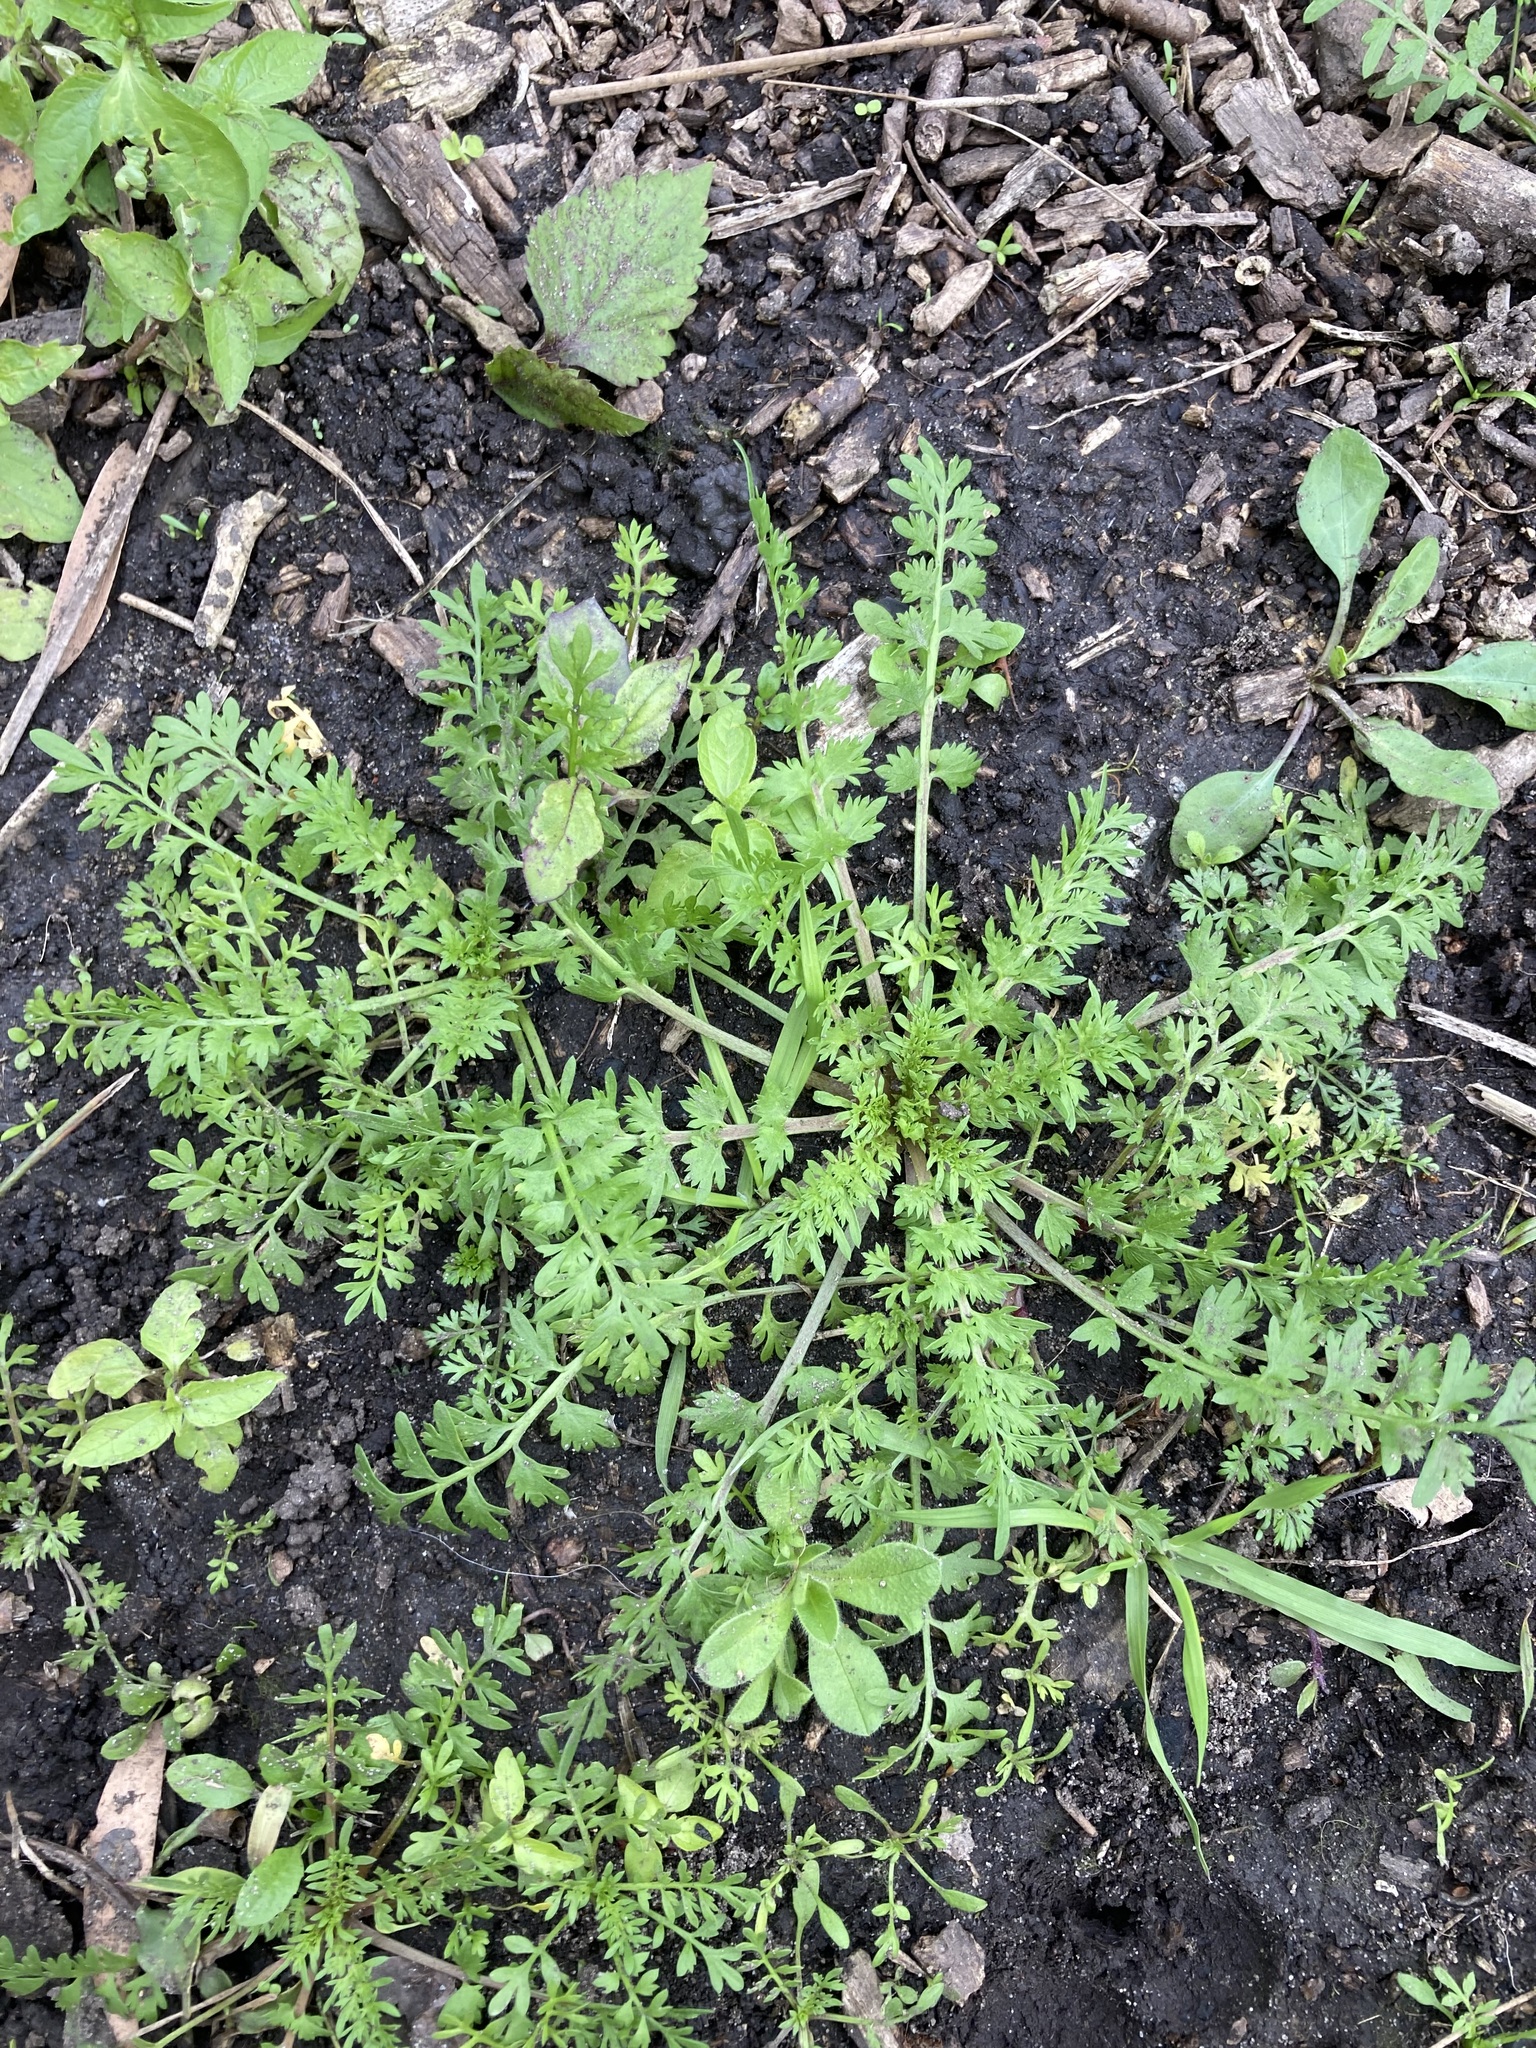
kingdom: Plantae
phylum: Tracheophyta
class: Magnoliopsida
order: Brassicales
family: Brassicaceae
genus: Lepidium
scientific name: Lepidium didymum
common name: Lesser swinecress
